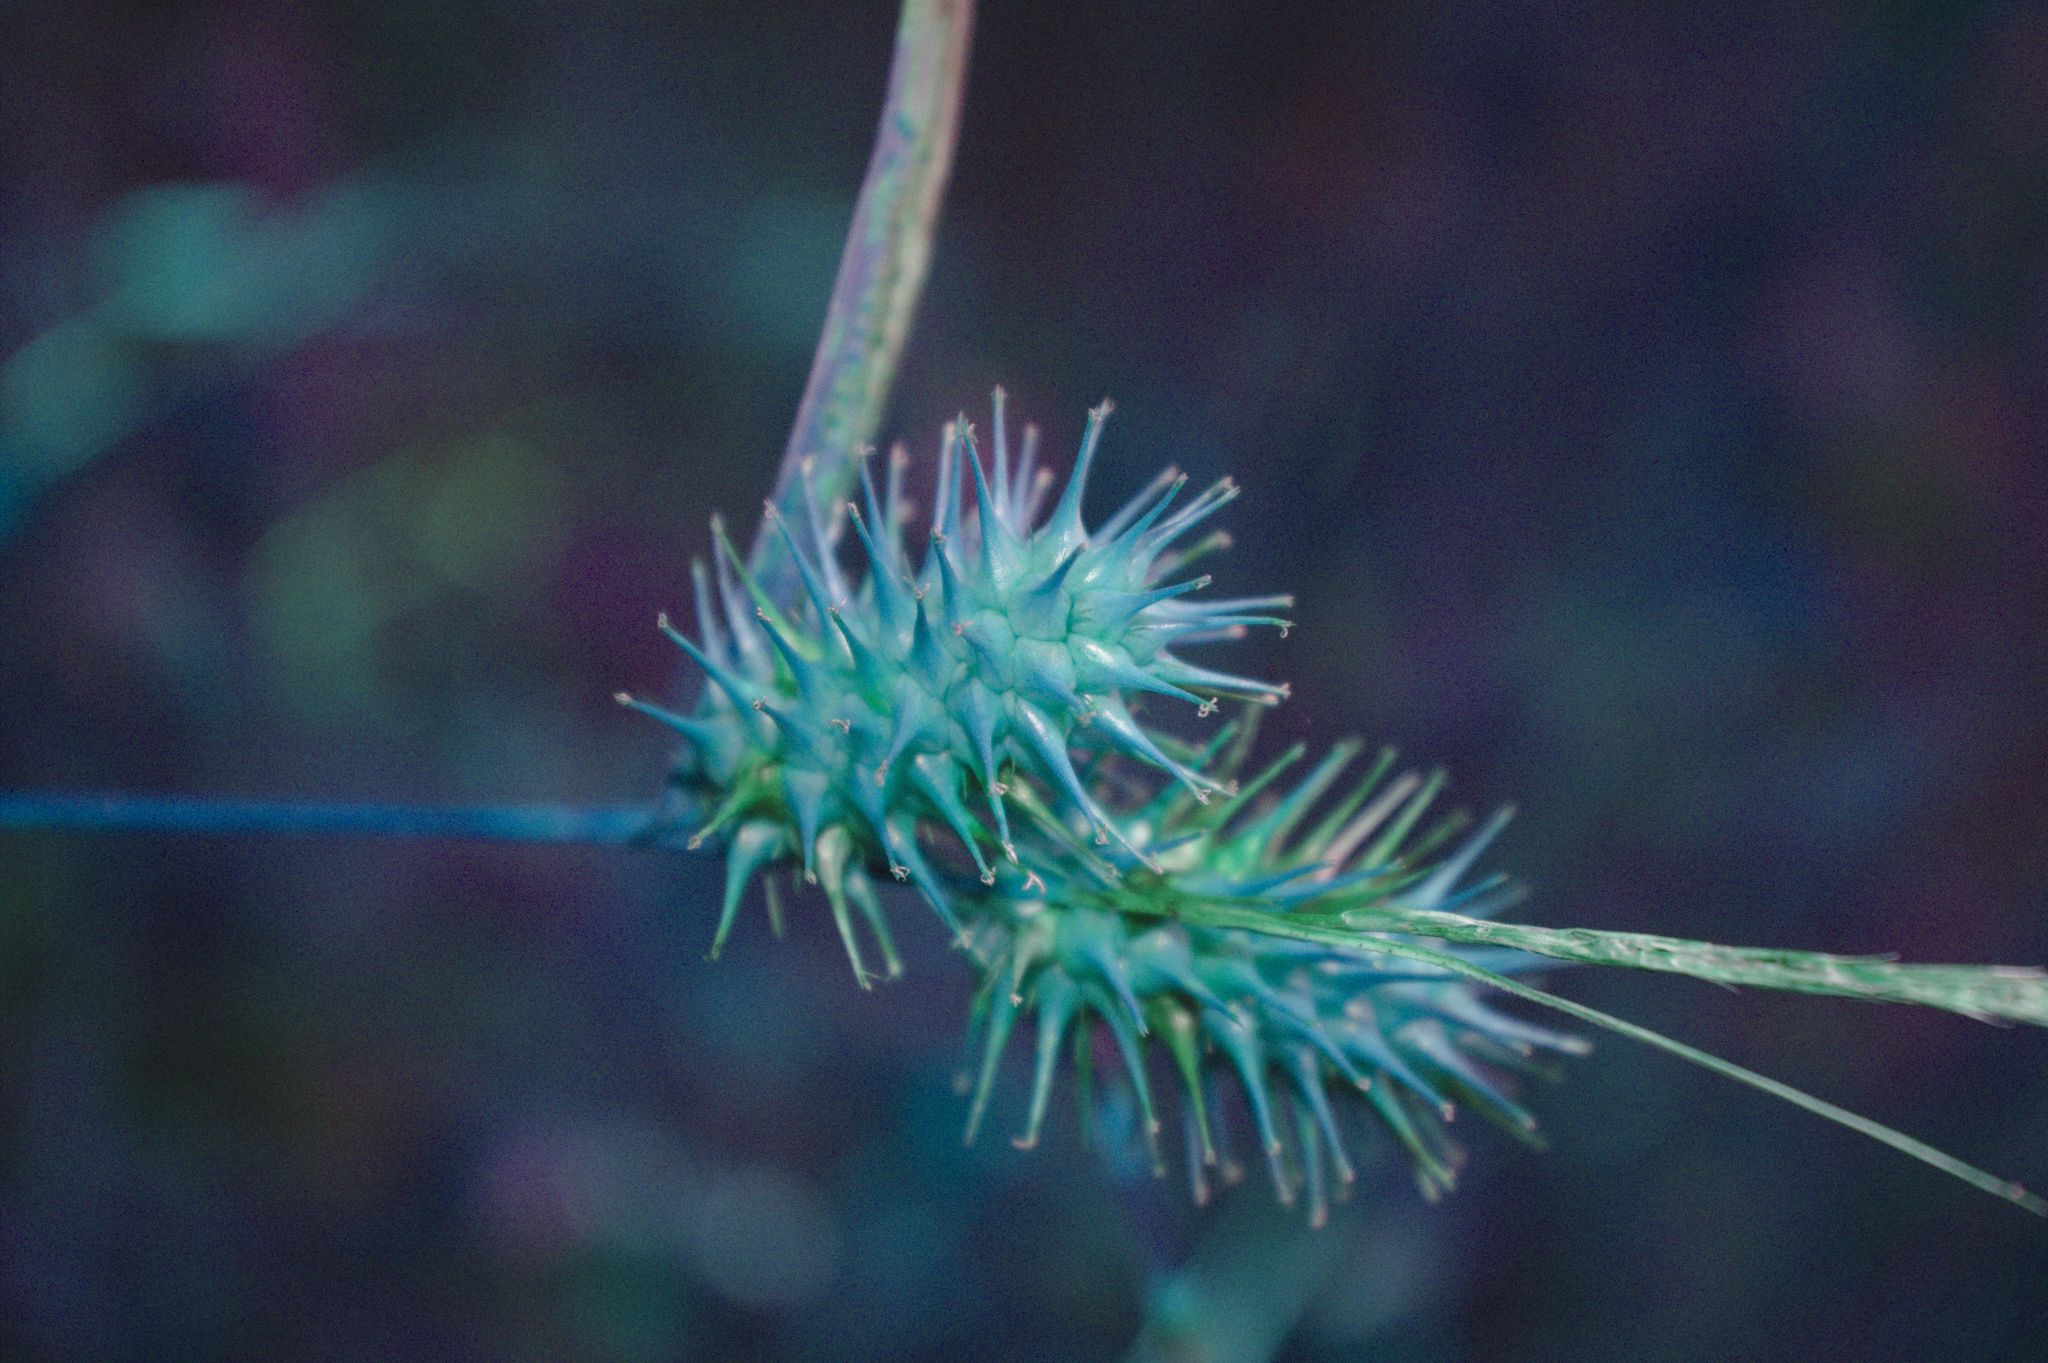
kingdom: Plantae
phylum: Tracheophyta
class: Liliopsida
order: Poales
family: Cyperaceae
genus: Carex
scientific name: Carex lurida
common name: Sallow sedge
